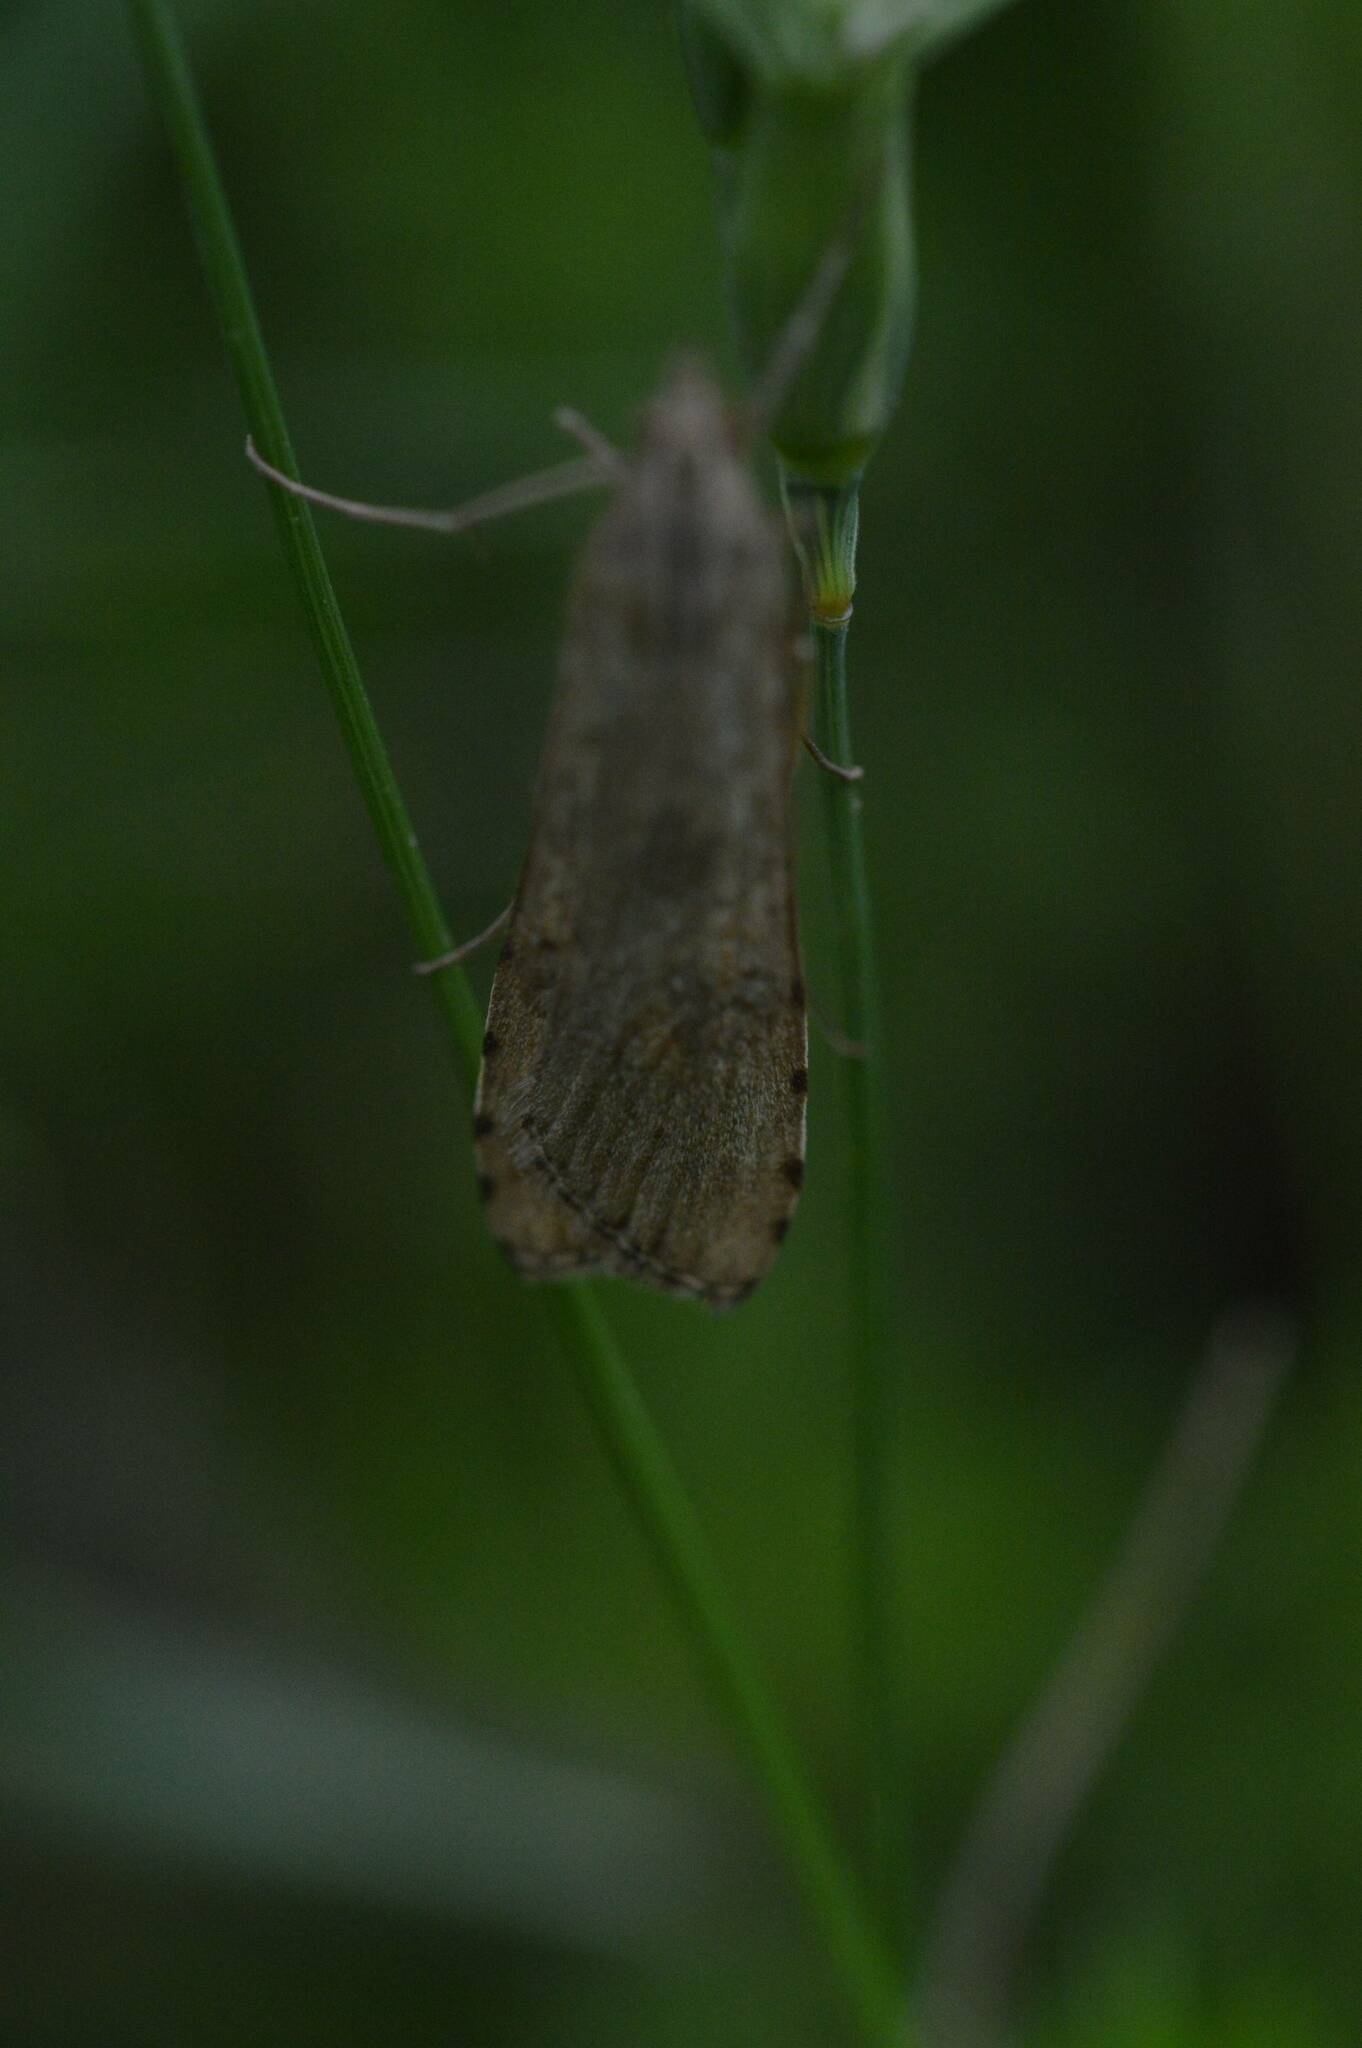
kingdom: Animalia
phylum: Arthropoda
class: Insecta
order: Lepidoptera
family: Crambidae
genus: Nomophila
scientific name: Nomophila noctuella
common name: Rush veneer
